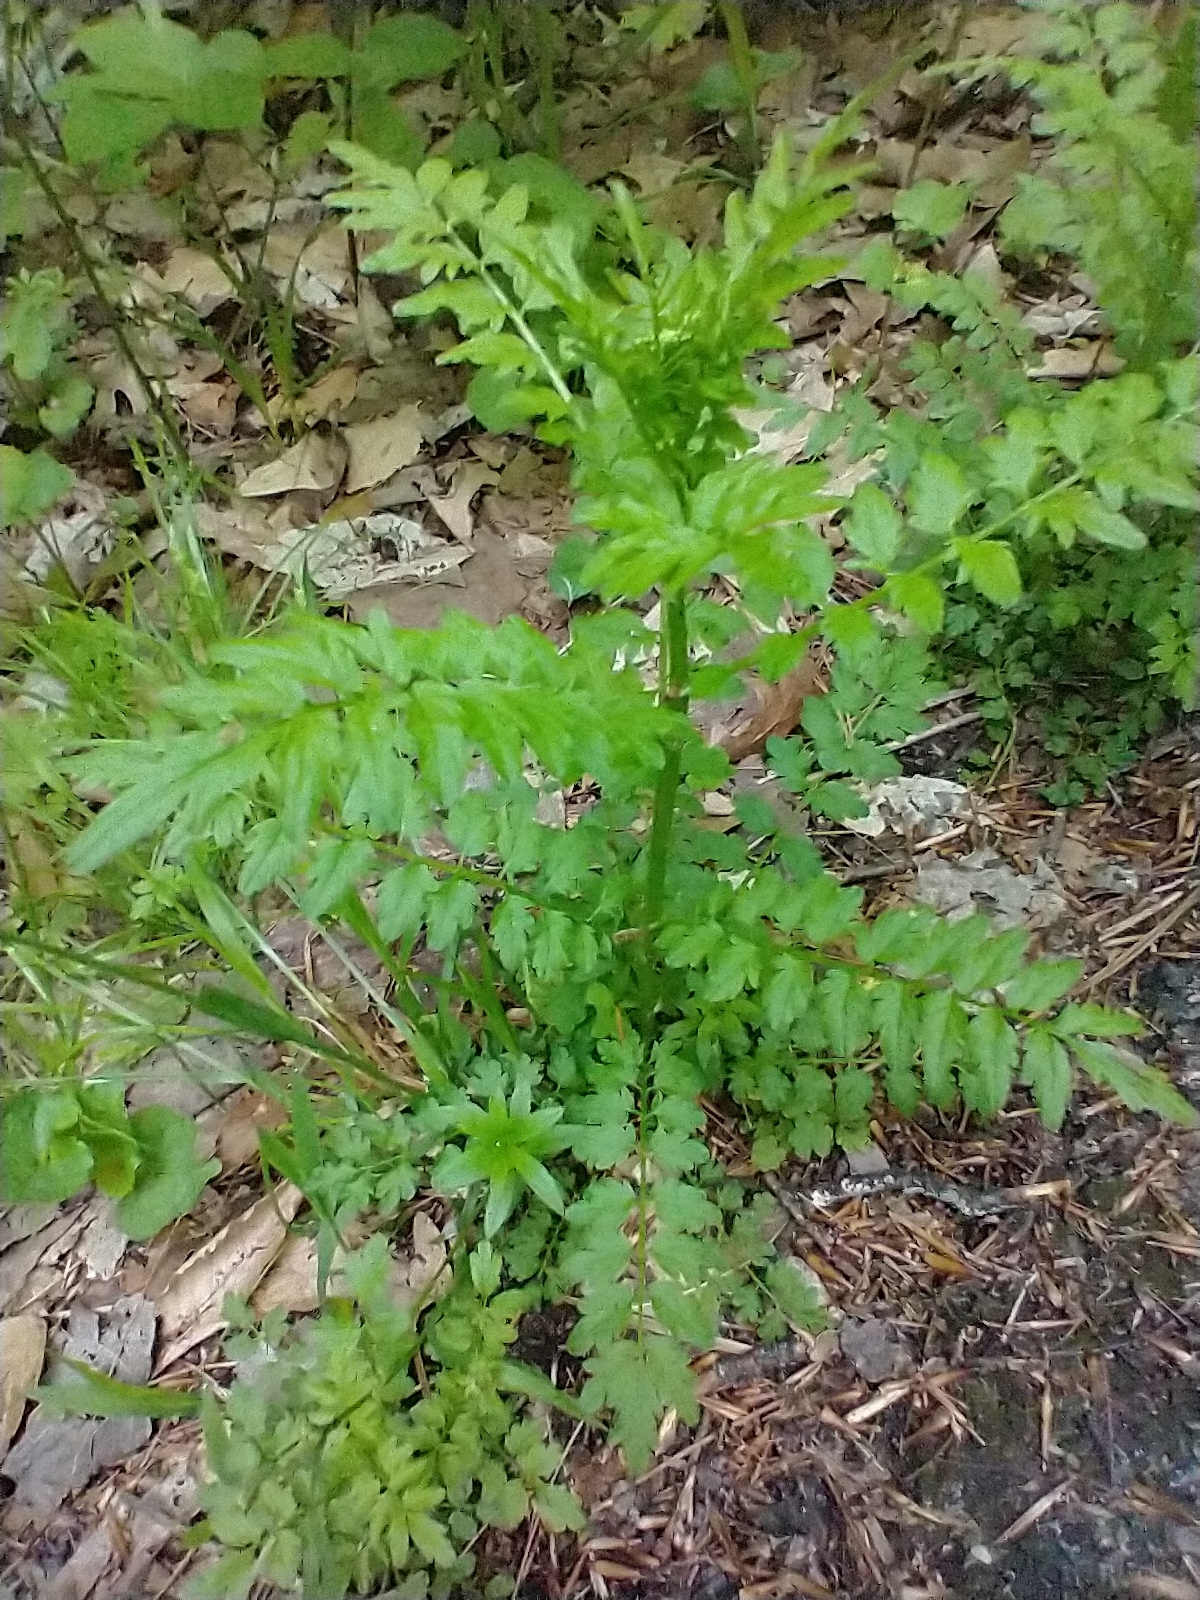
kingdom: Plantae
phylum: Tracheophyta
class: Magnoliopsida
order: Brassicales
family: Brassicaceae
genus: Cardamine
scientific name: Cardamine impatiens
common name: Narrow-leaved bitter-cress
